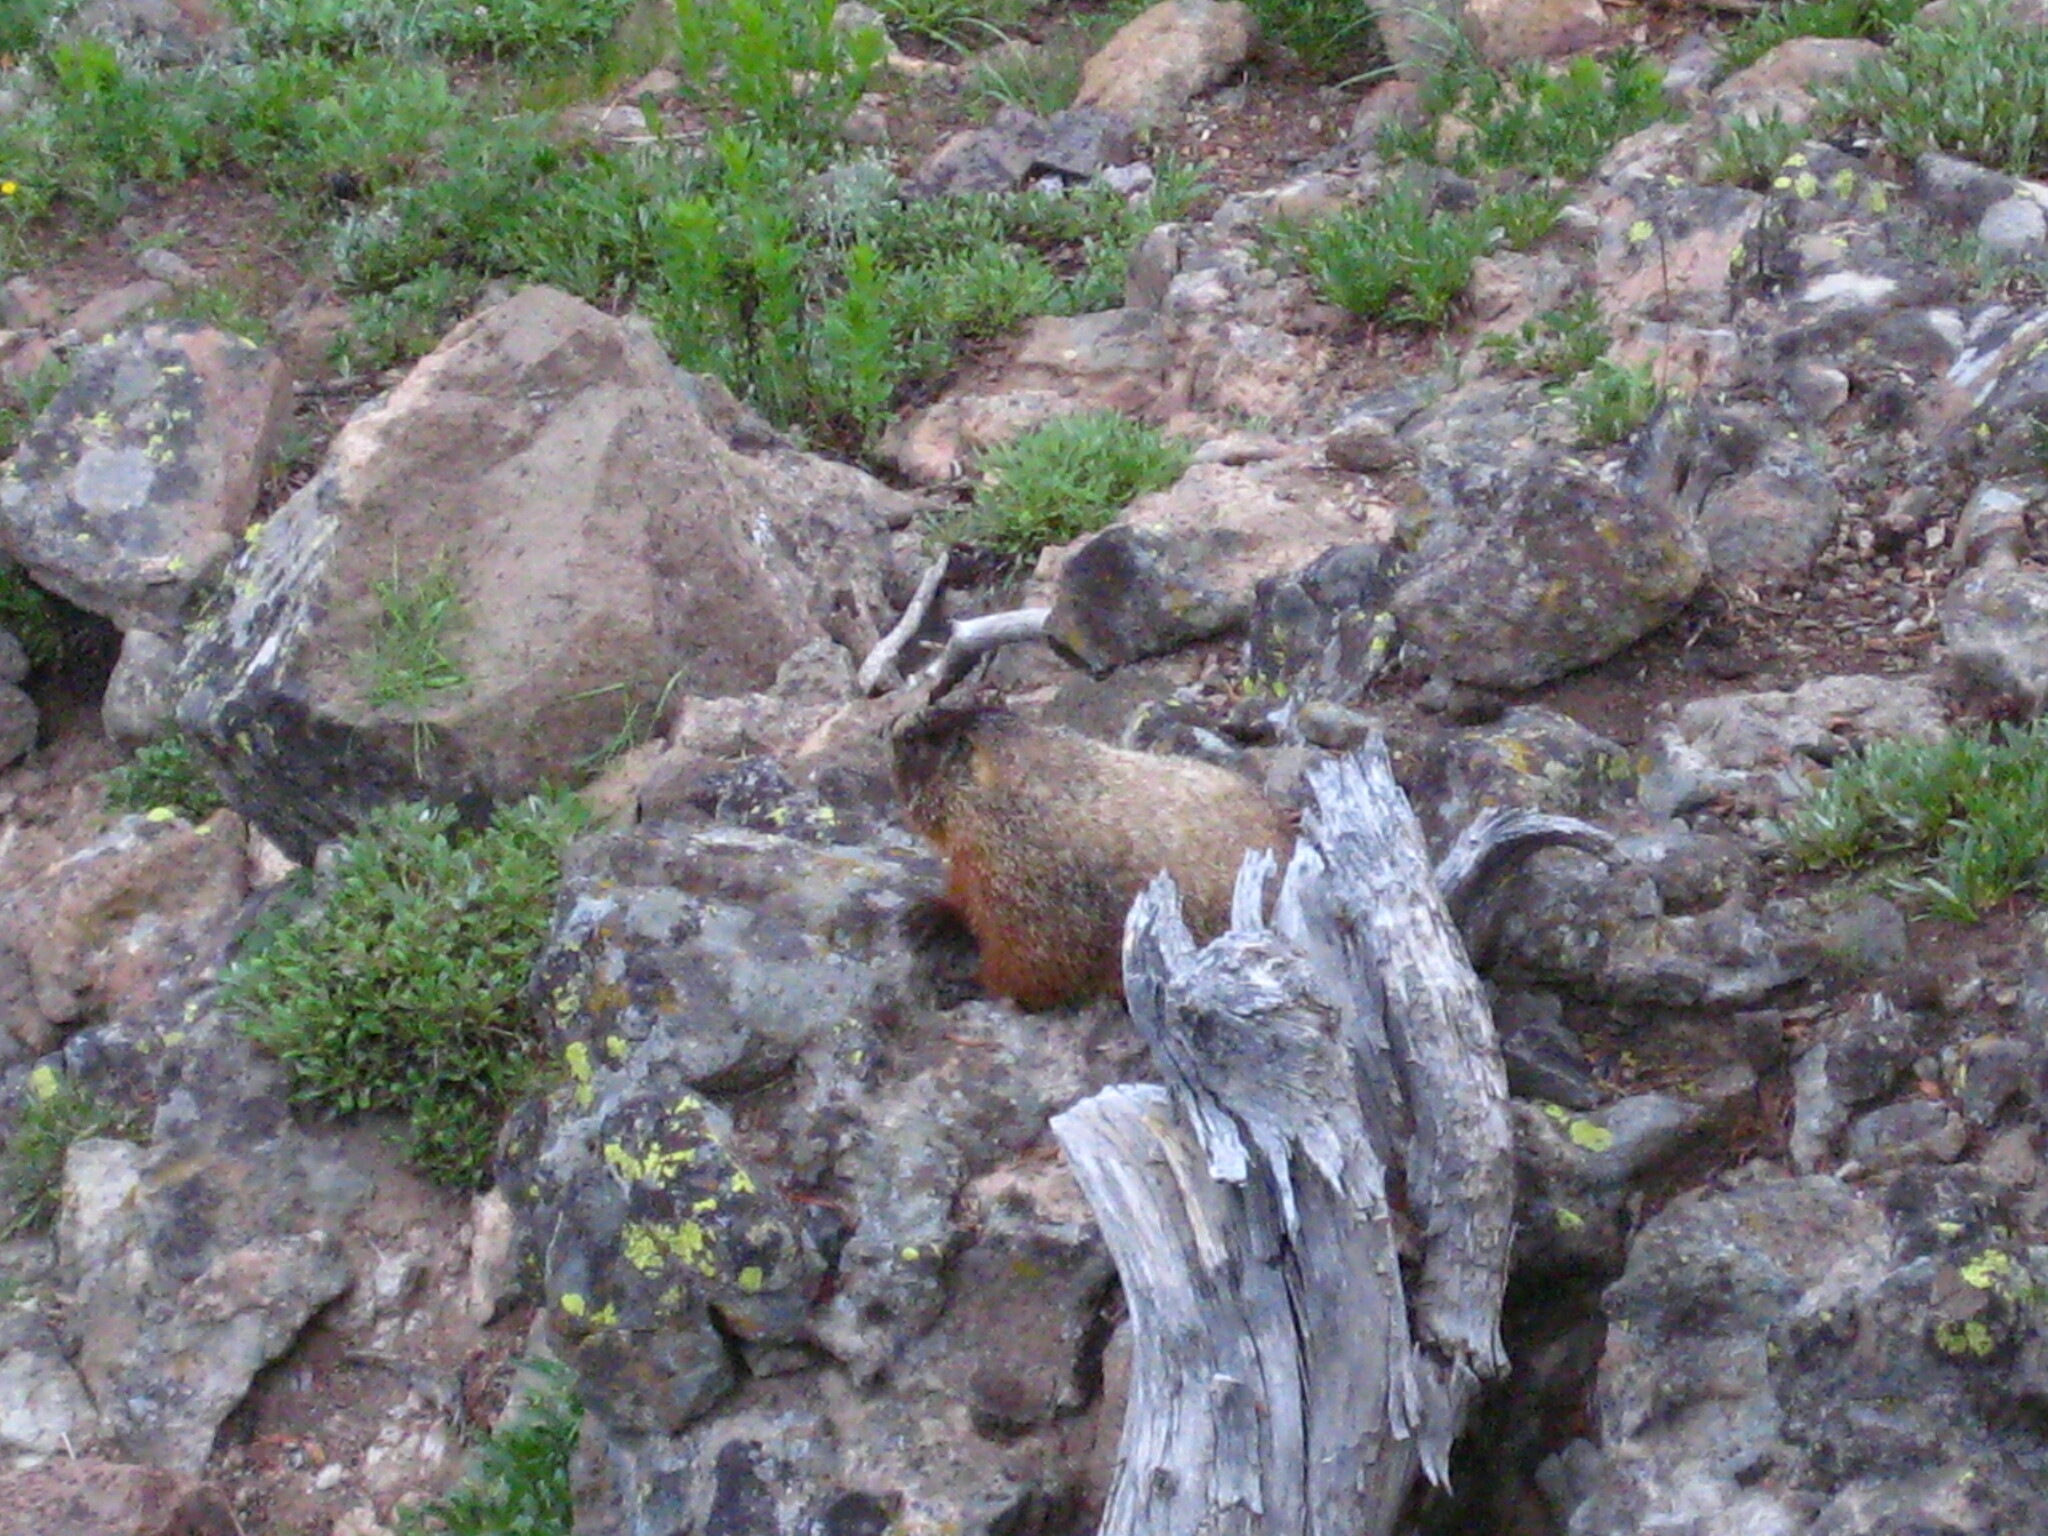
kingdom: Animalia
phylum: Chordata
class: Mammalia
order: Rodentia
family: Sciuridae
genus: Marmota
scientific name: Marmota flaviventris
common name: Yellow-bellied marmot
